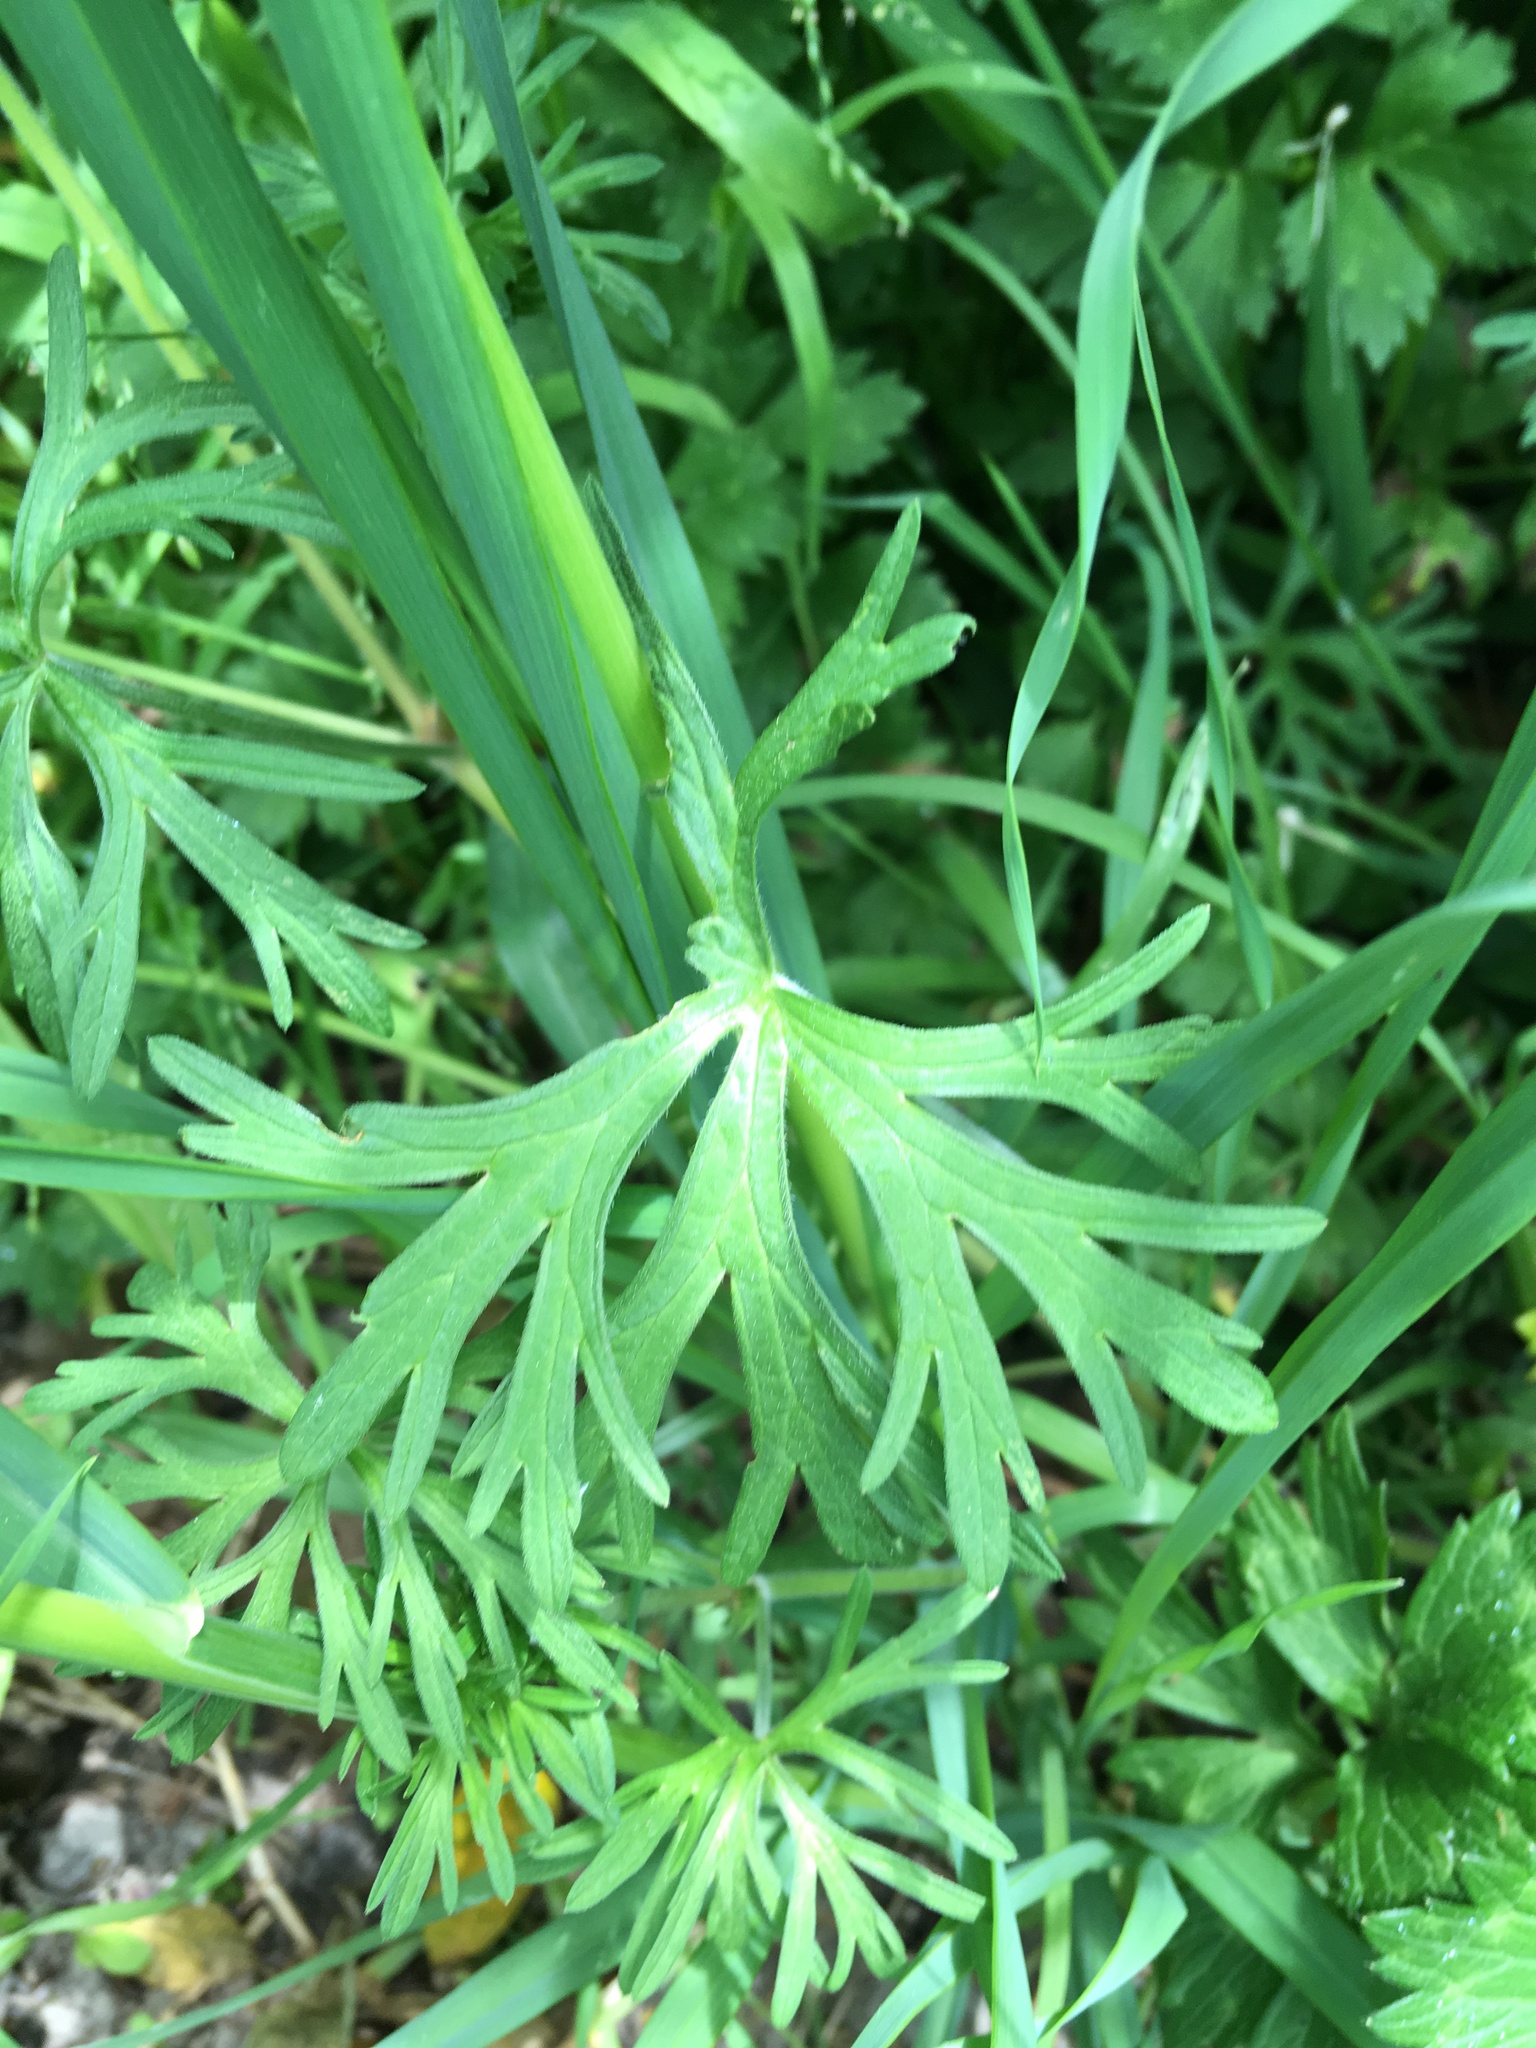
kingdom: Plantae
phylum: Tracheophyta
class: Magnoliopsida
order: Geraniales
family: Geraniaceae
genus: Geranium
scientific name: Geranium dissectum
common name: Cut-leaved crane's-bill
